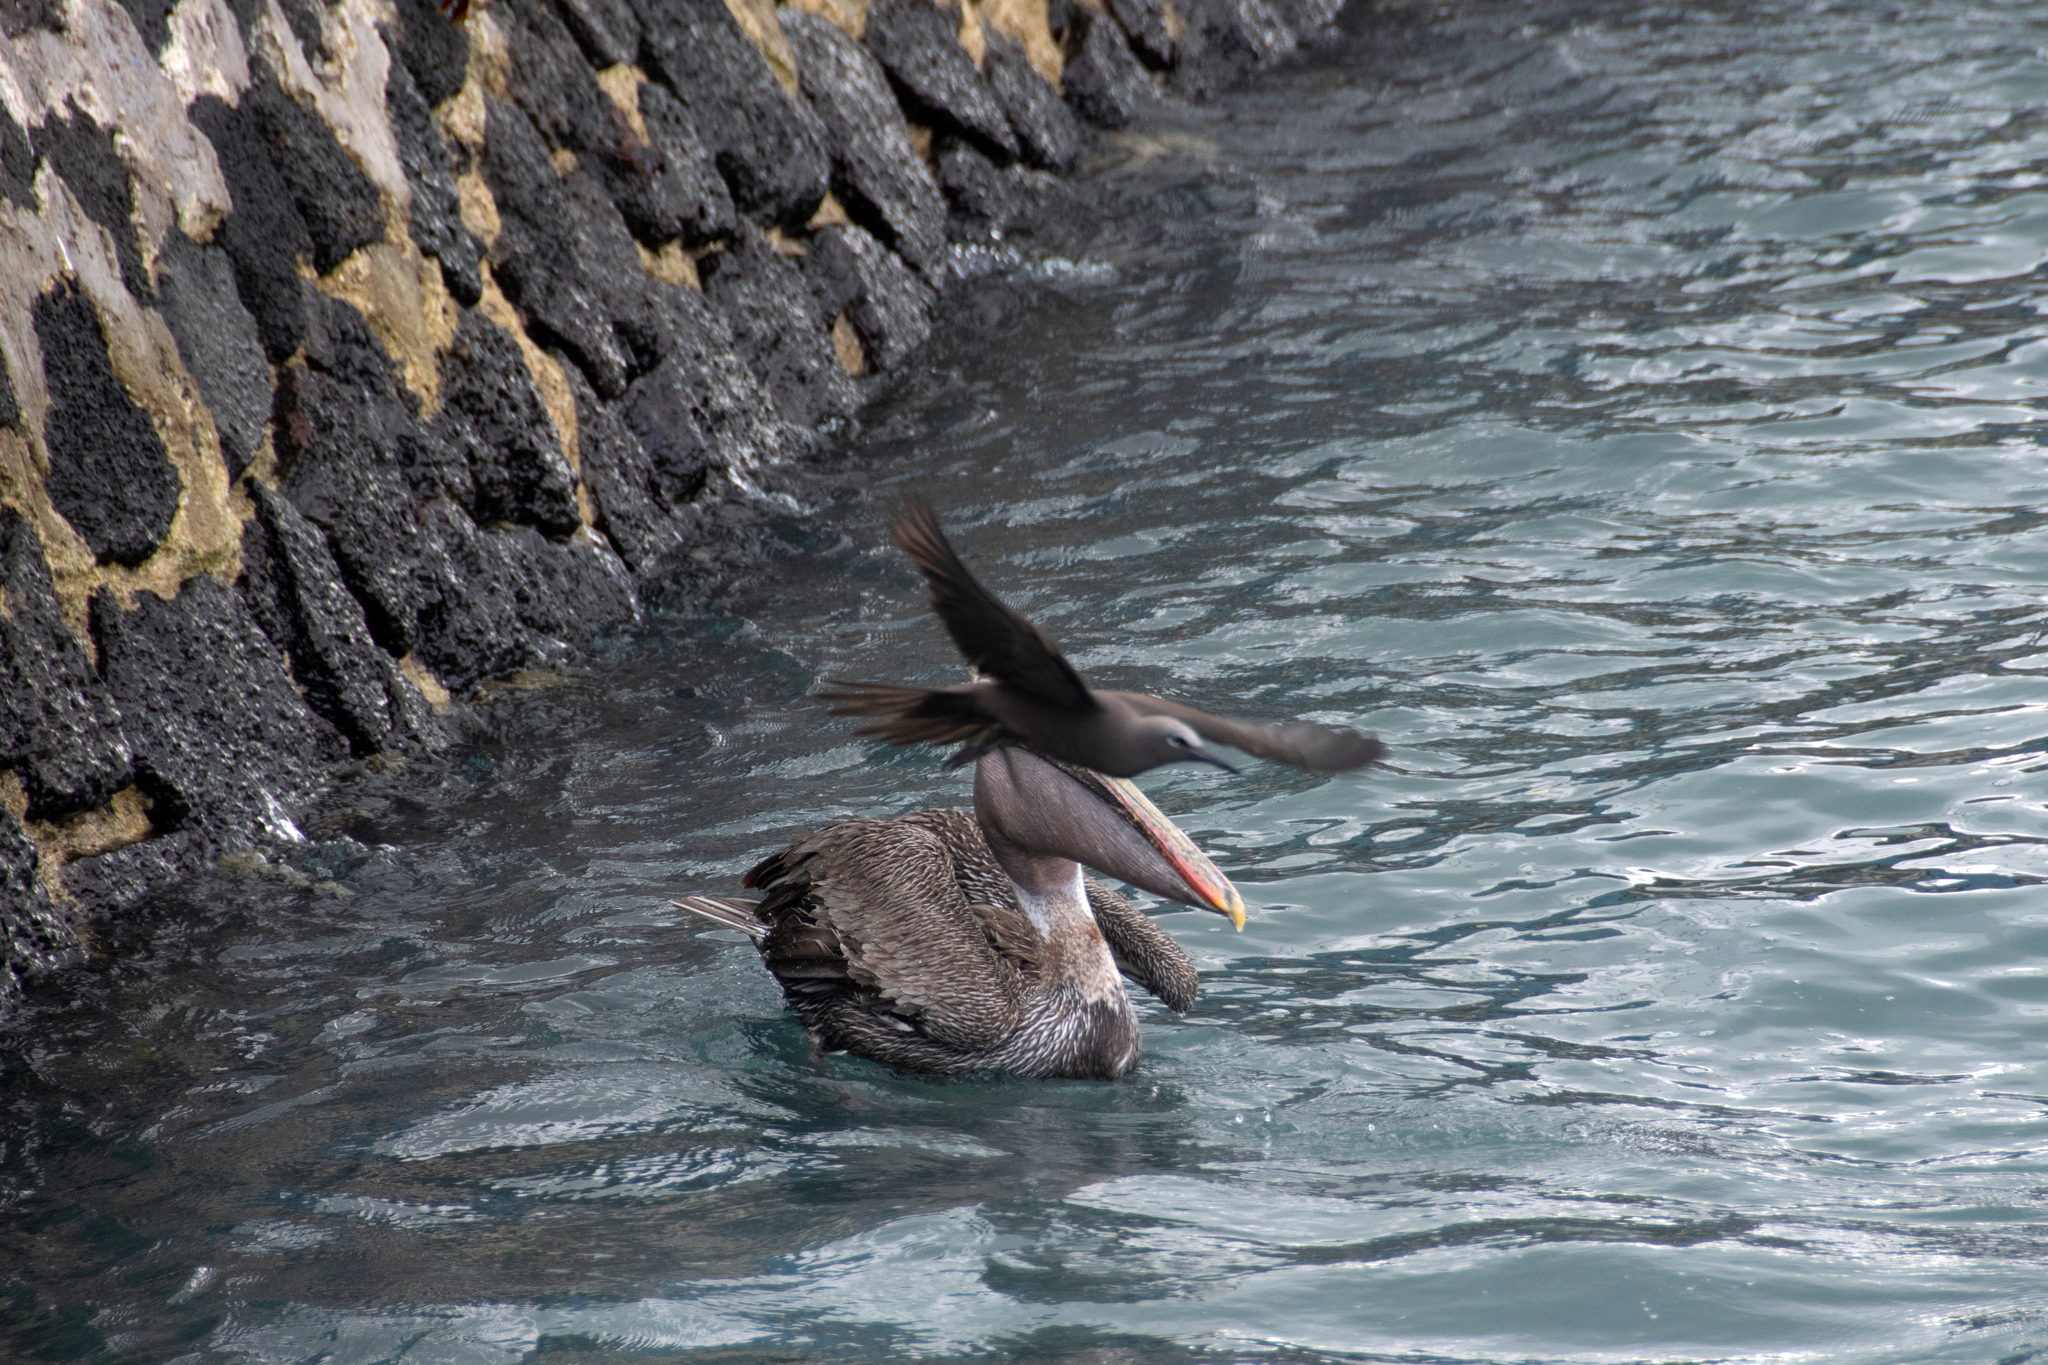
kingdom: Animalia
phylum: Chordata
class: Aves
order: Charadriiformes
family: Laridae
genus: Anous
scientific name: Anous stolidus
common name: Brown noddy
